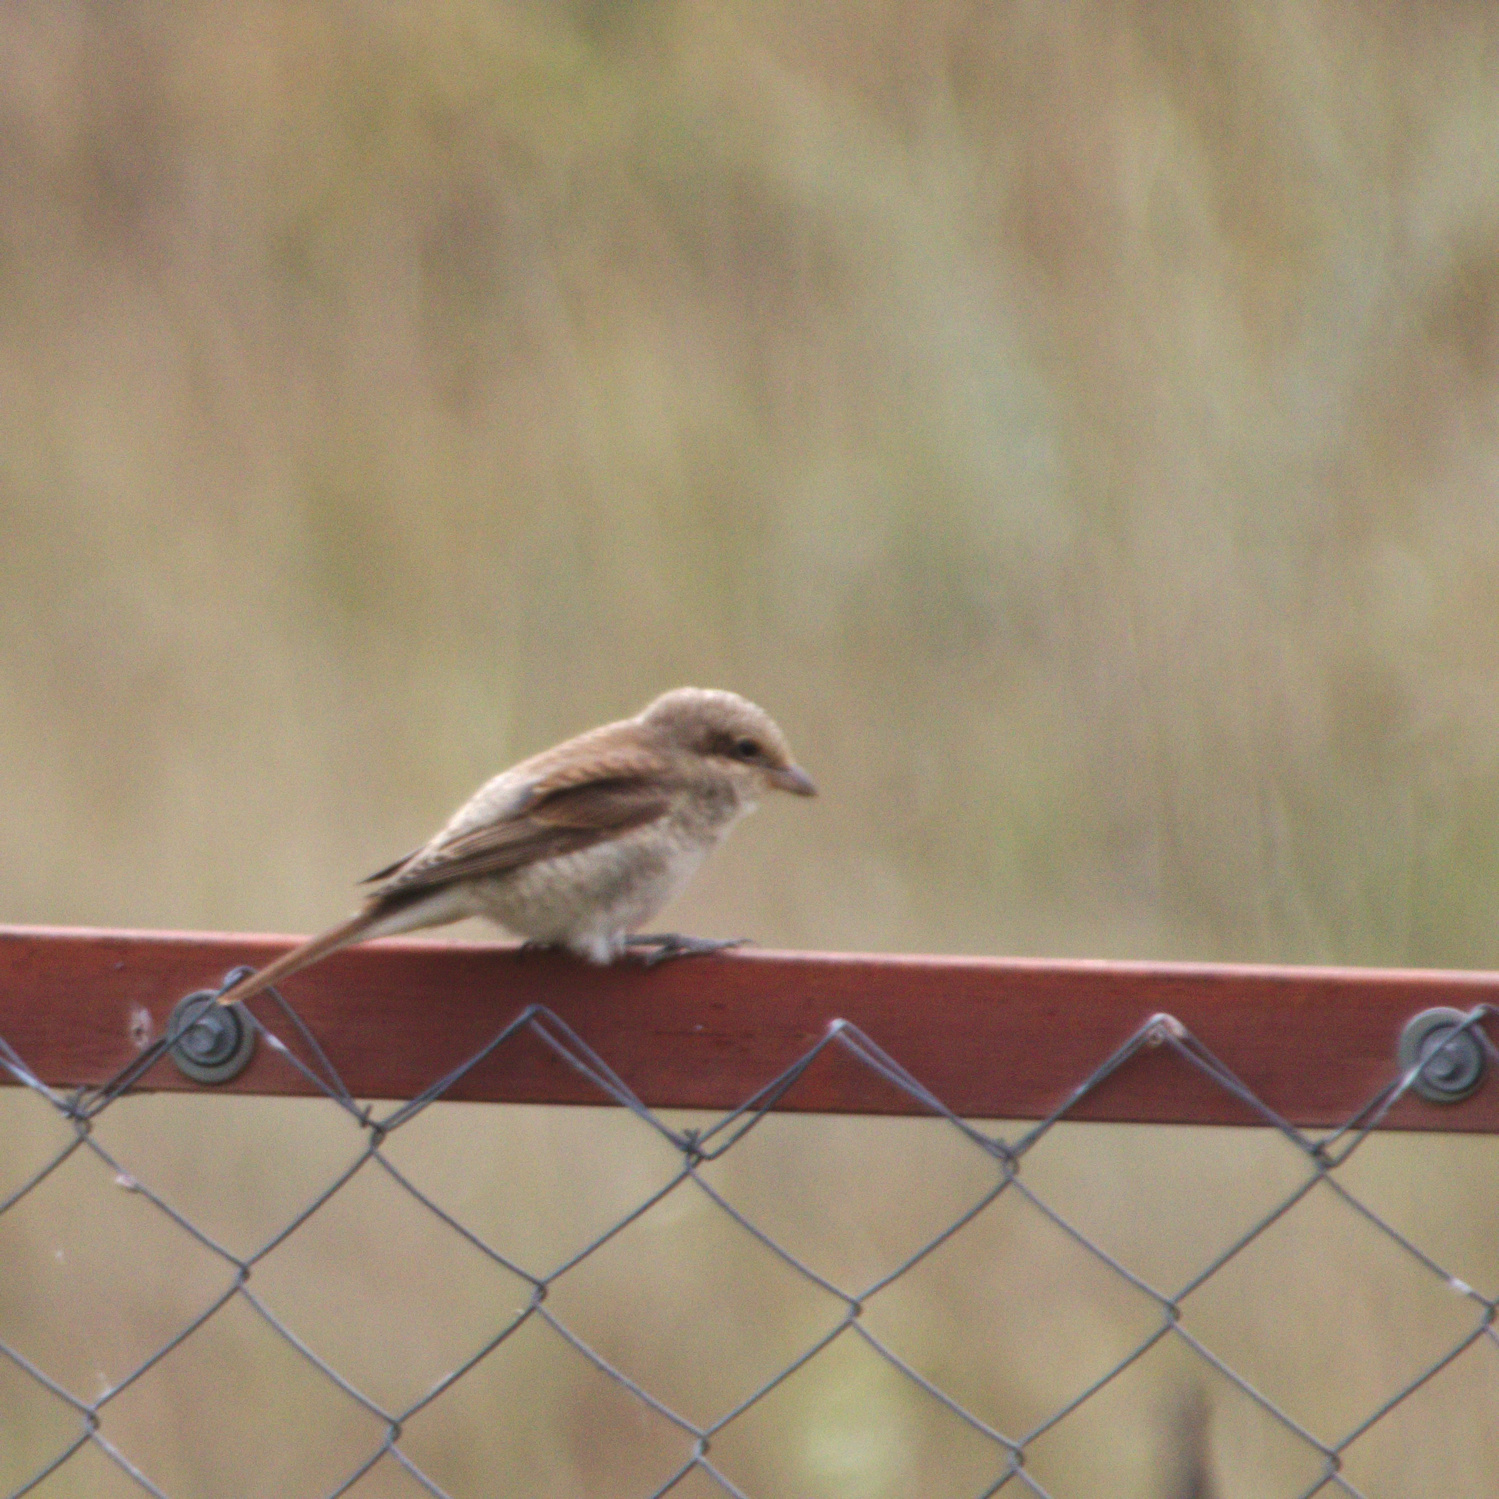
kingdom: Animalia
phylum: Chordata
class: Aves
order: Passeriformes
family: Laniidae
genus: Lanius
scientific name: Lanius collurio
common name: Red-backed shrike
